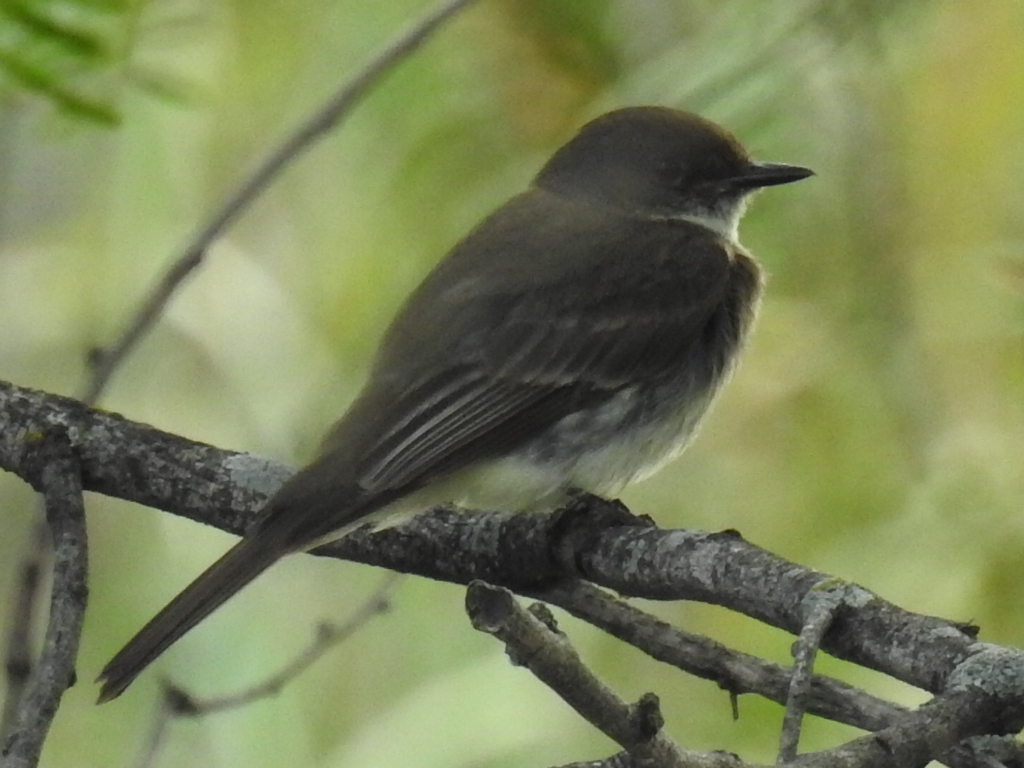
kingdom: Animalia
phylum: Chordata
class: Aves
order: Passeriformes
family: Tyrannidae
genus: Sayornis
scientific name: Sayornis phoebe
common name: Eastern phoebe
